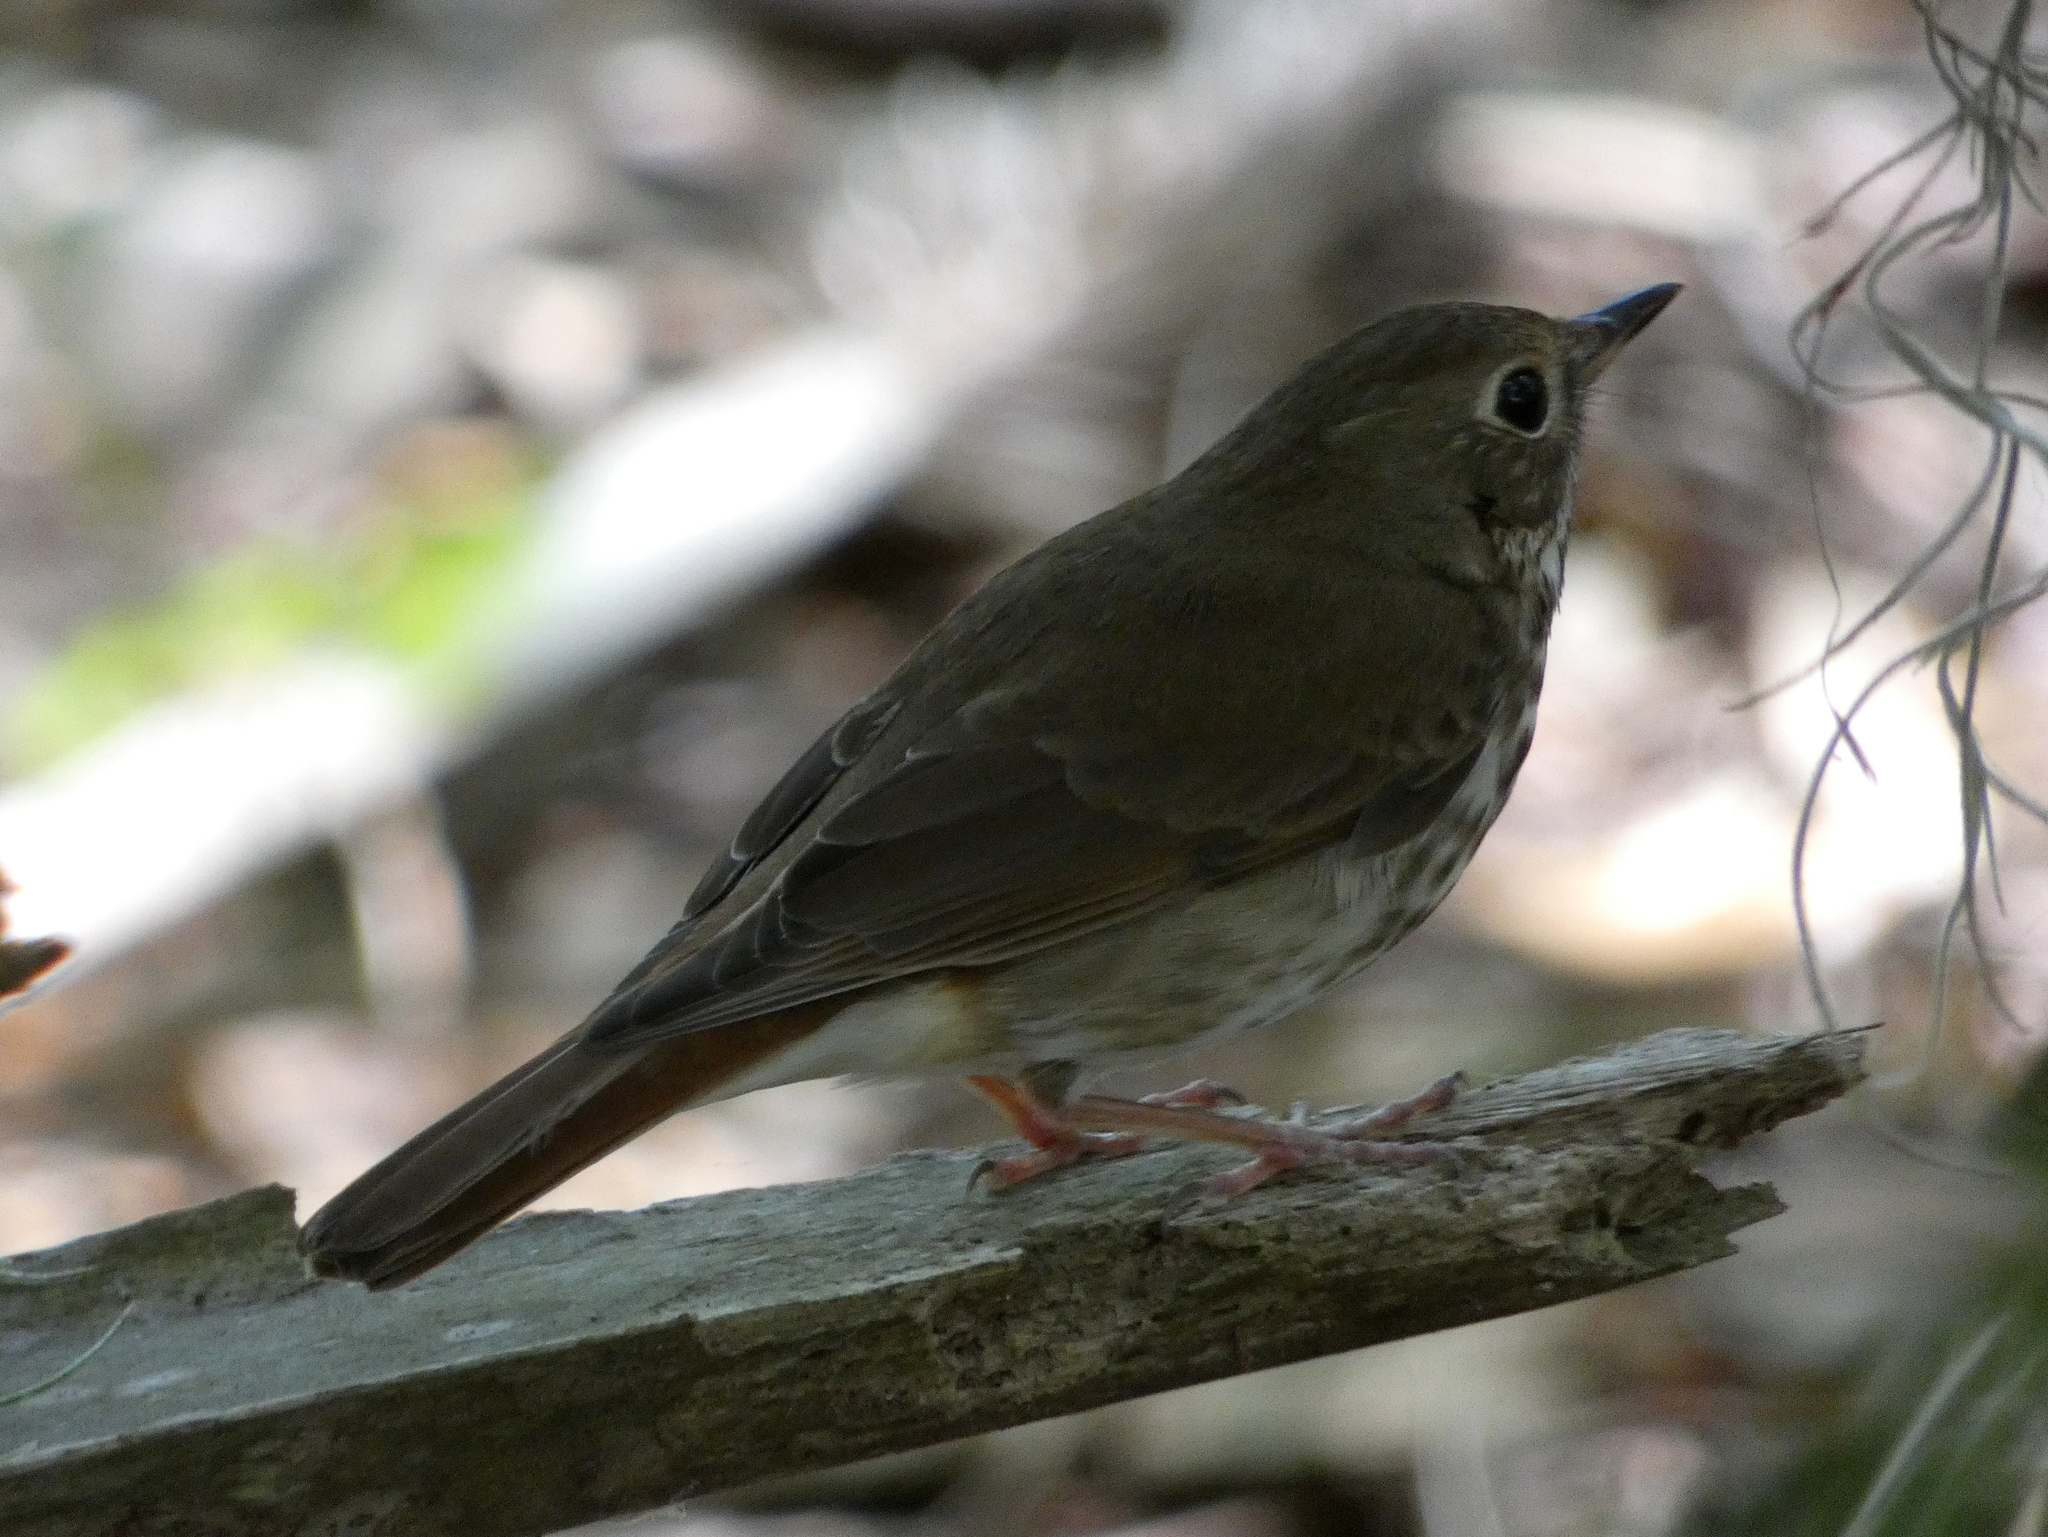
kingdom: Animalia
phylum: Chordata
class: Aves
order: Passeriformes
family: Turdidae
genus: Catharus
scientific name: Catharus guttatus
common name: Hermit thrush
